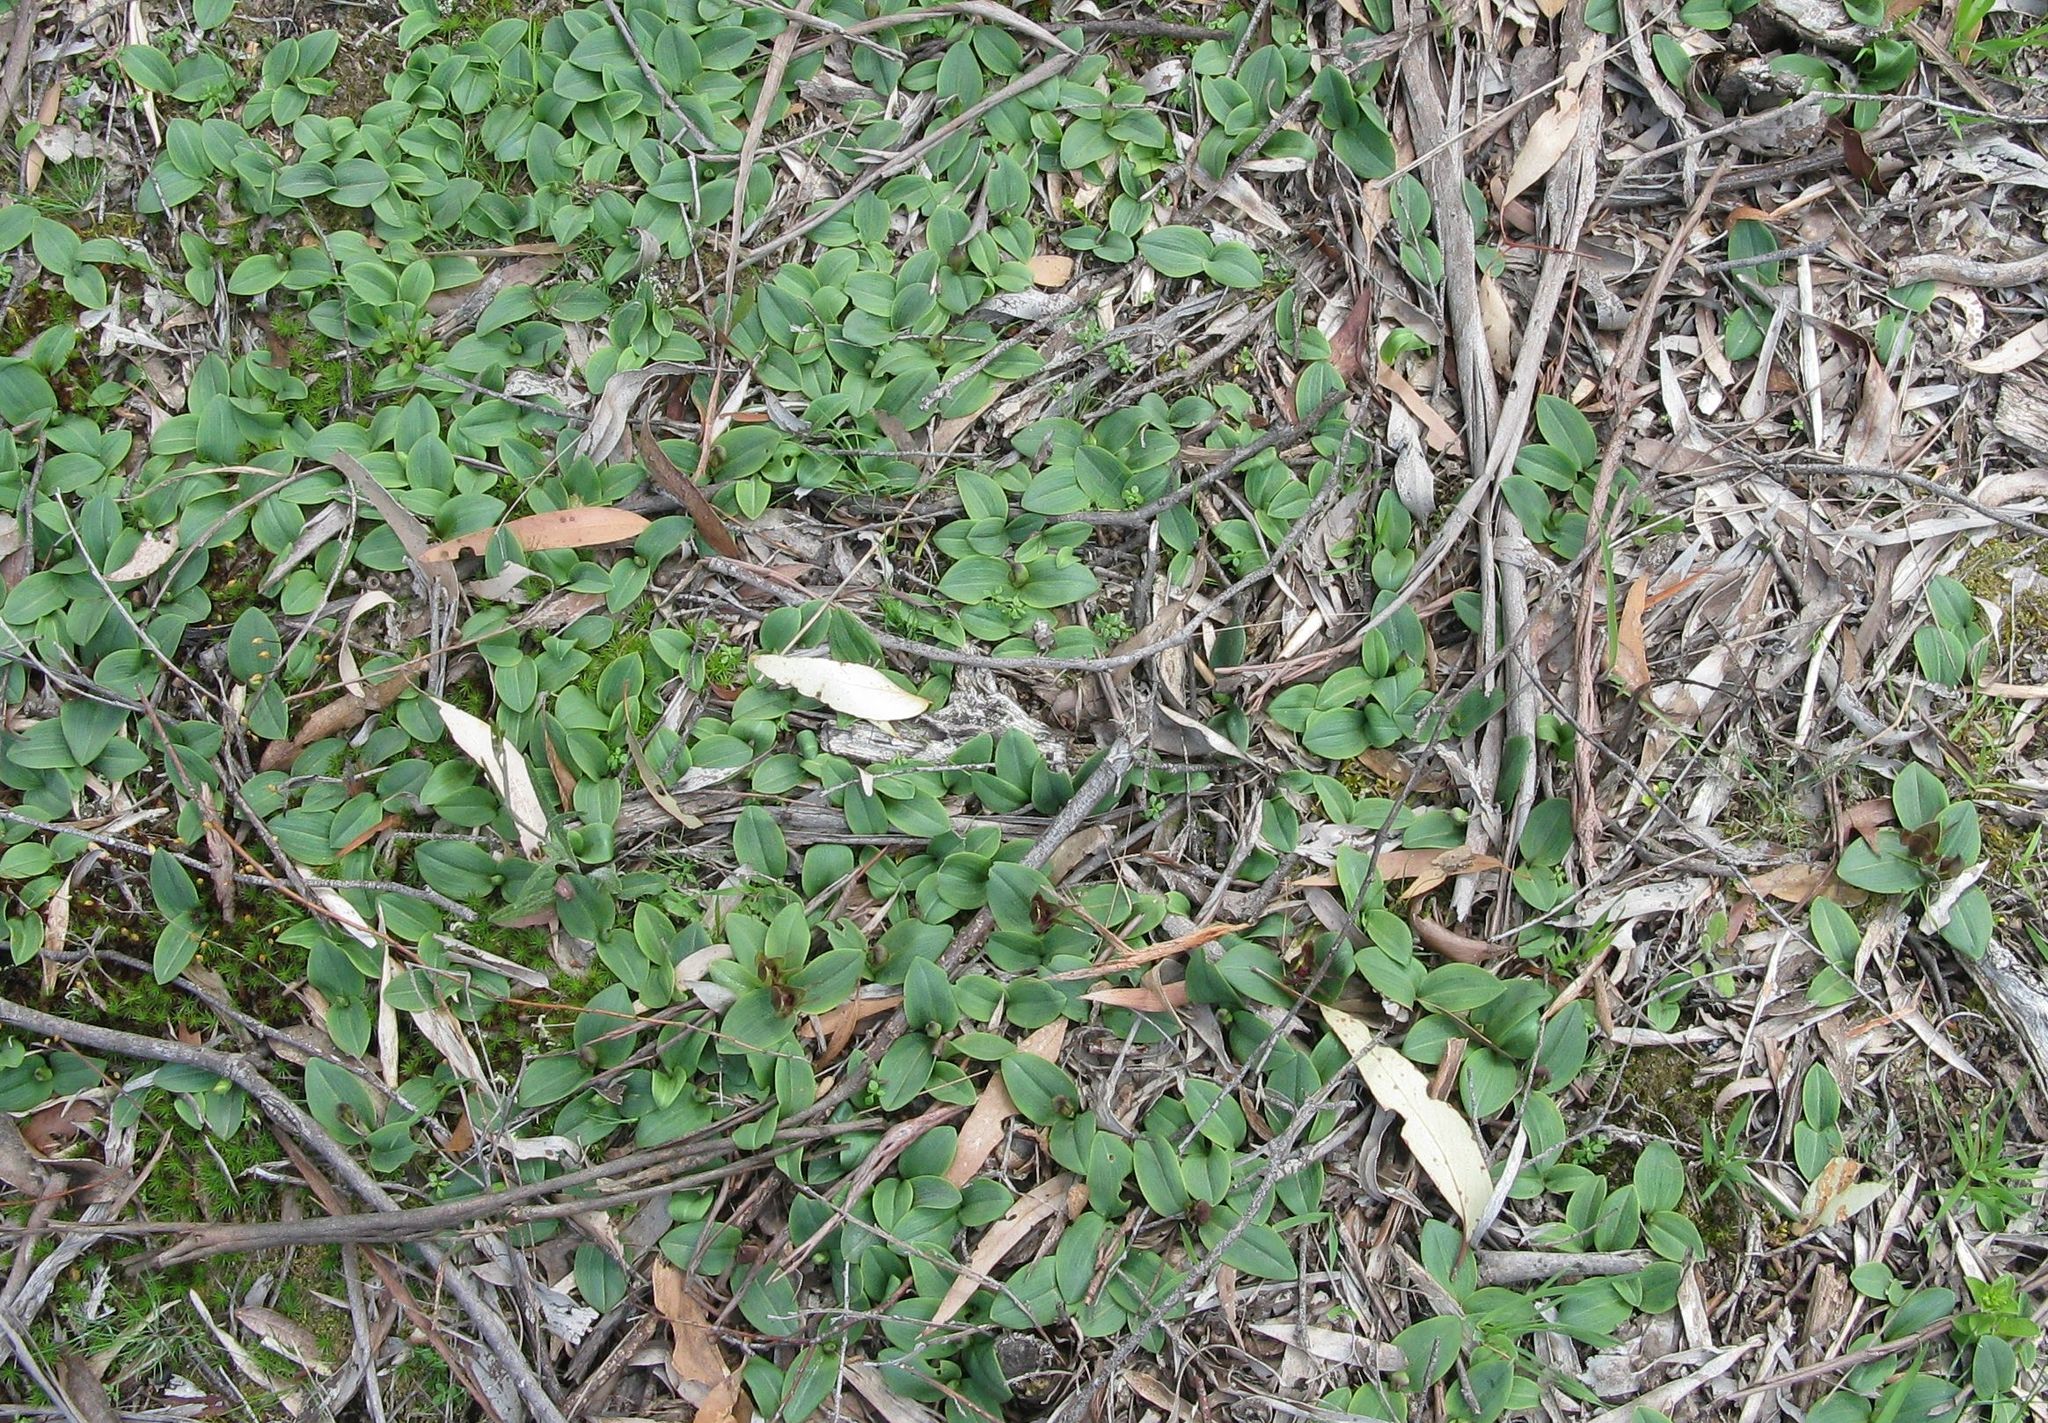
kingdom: Plantae
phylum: Tracheophyta
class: Liliopsida
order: Asparagales
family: Orchidaceae
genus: Chiloglottis
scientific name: Chiloglottis valida
